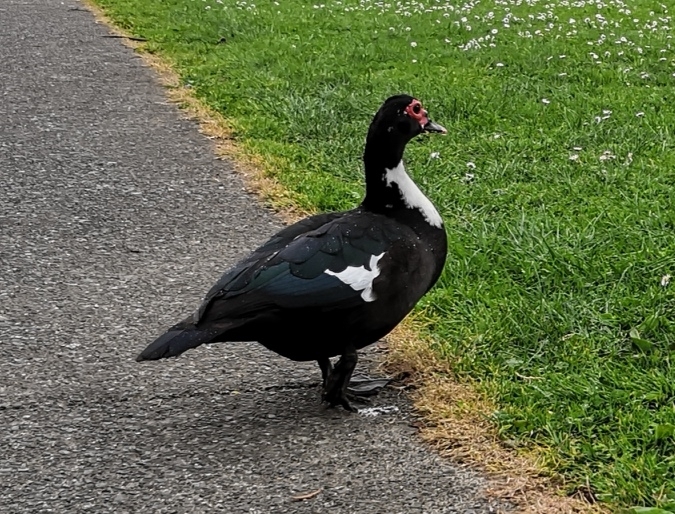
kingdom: Animalia
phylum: Chordata
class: Aves
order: Anseriformes
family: Anatidae
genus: Cairina
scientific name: Cairina moschata
